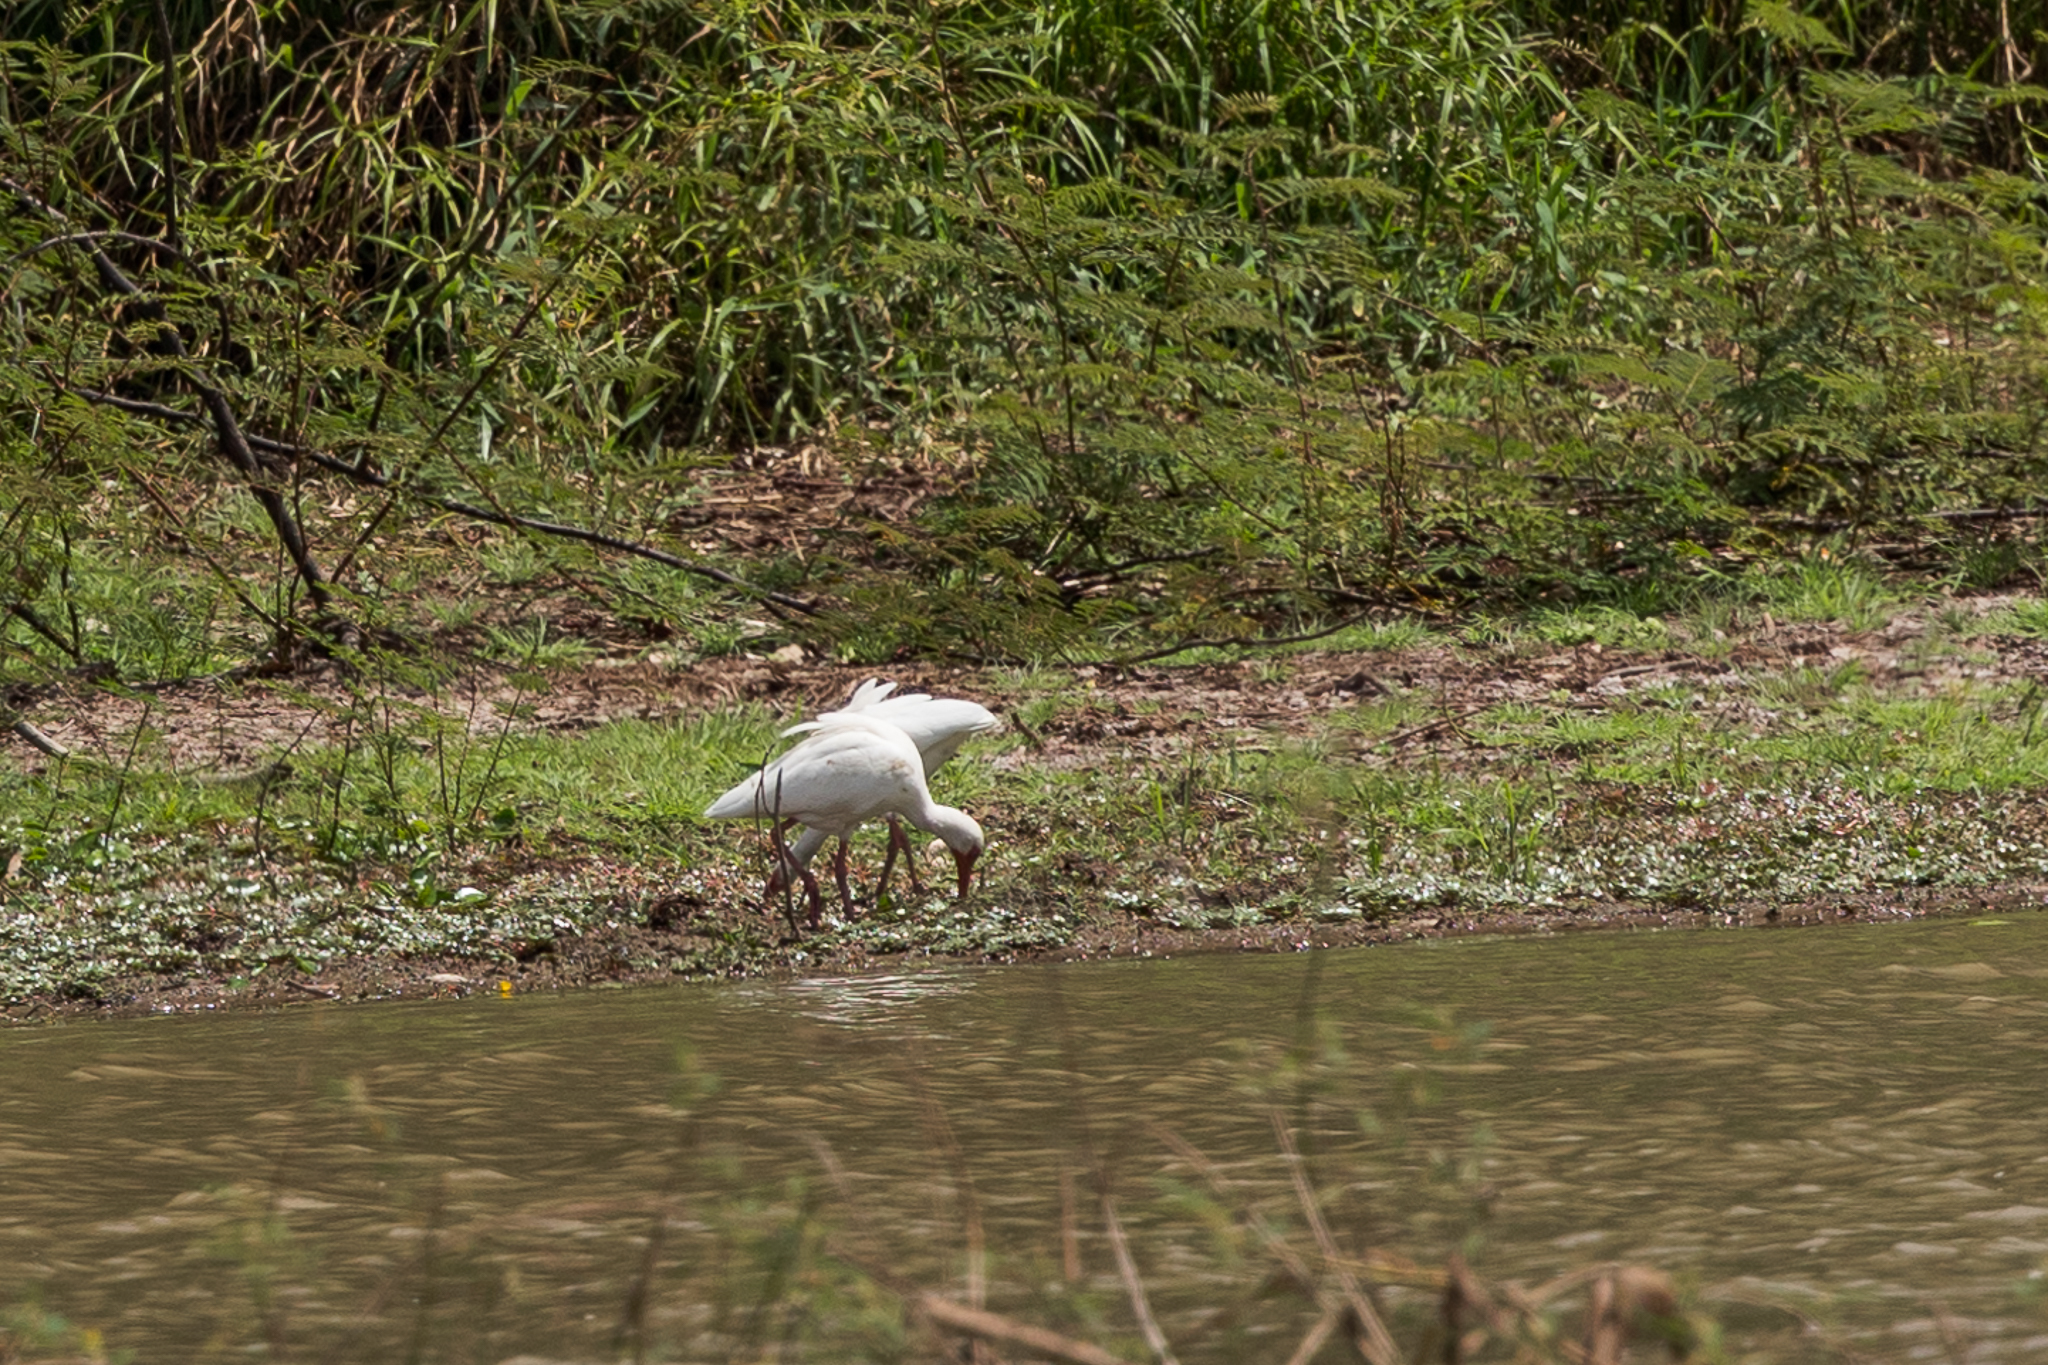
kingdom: Animalia
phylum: Chordata
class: Aves
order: Pelecaniformes
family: Threskiornithidae
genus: Eudocimus
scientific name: Eudocimus albus
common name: White ibis
